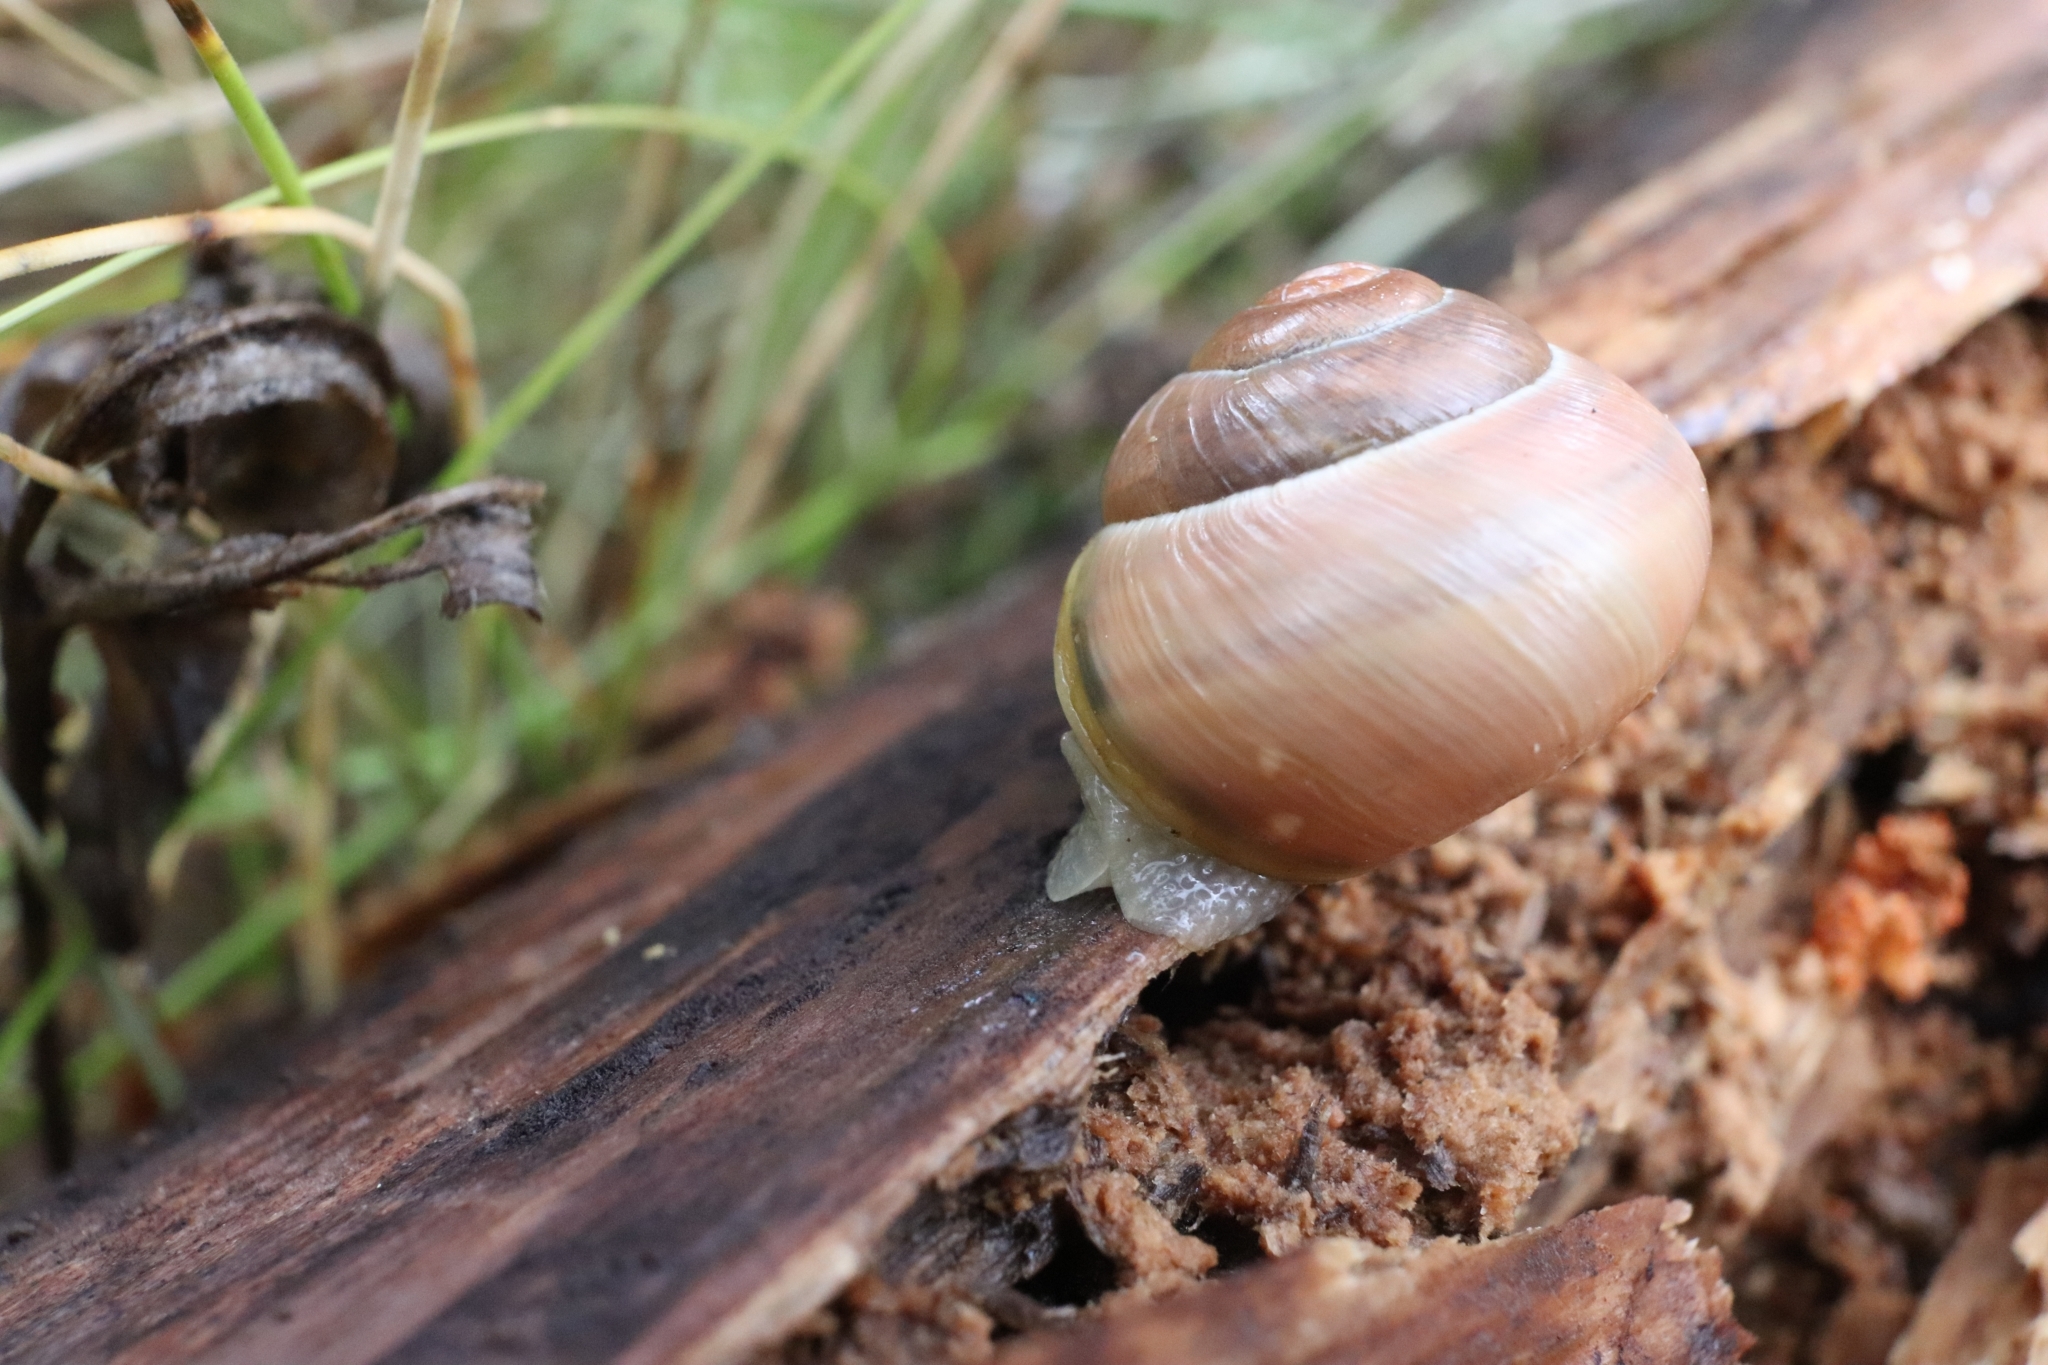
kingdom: Animalia
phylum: Mollusca
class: Gastropoda
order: Stylommatophora
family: Helicidae
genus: Cepaea
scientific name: Cepaea nemoralis
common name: Grovesnail
